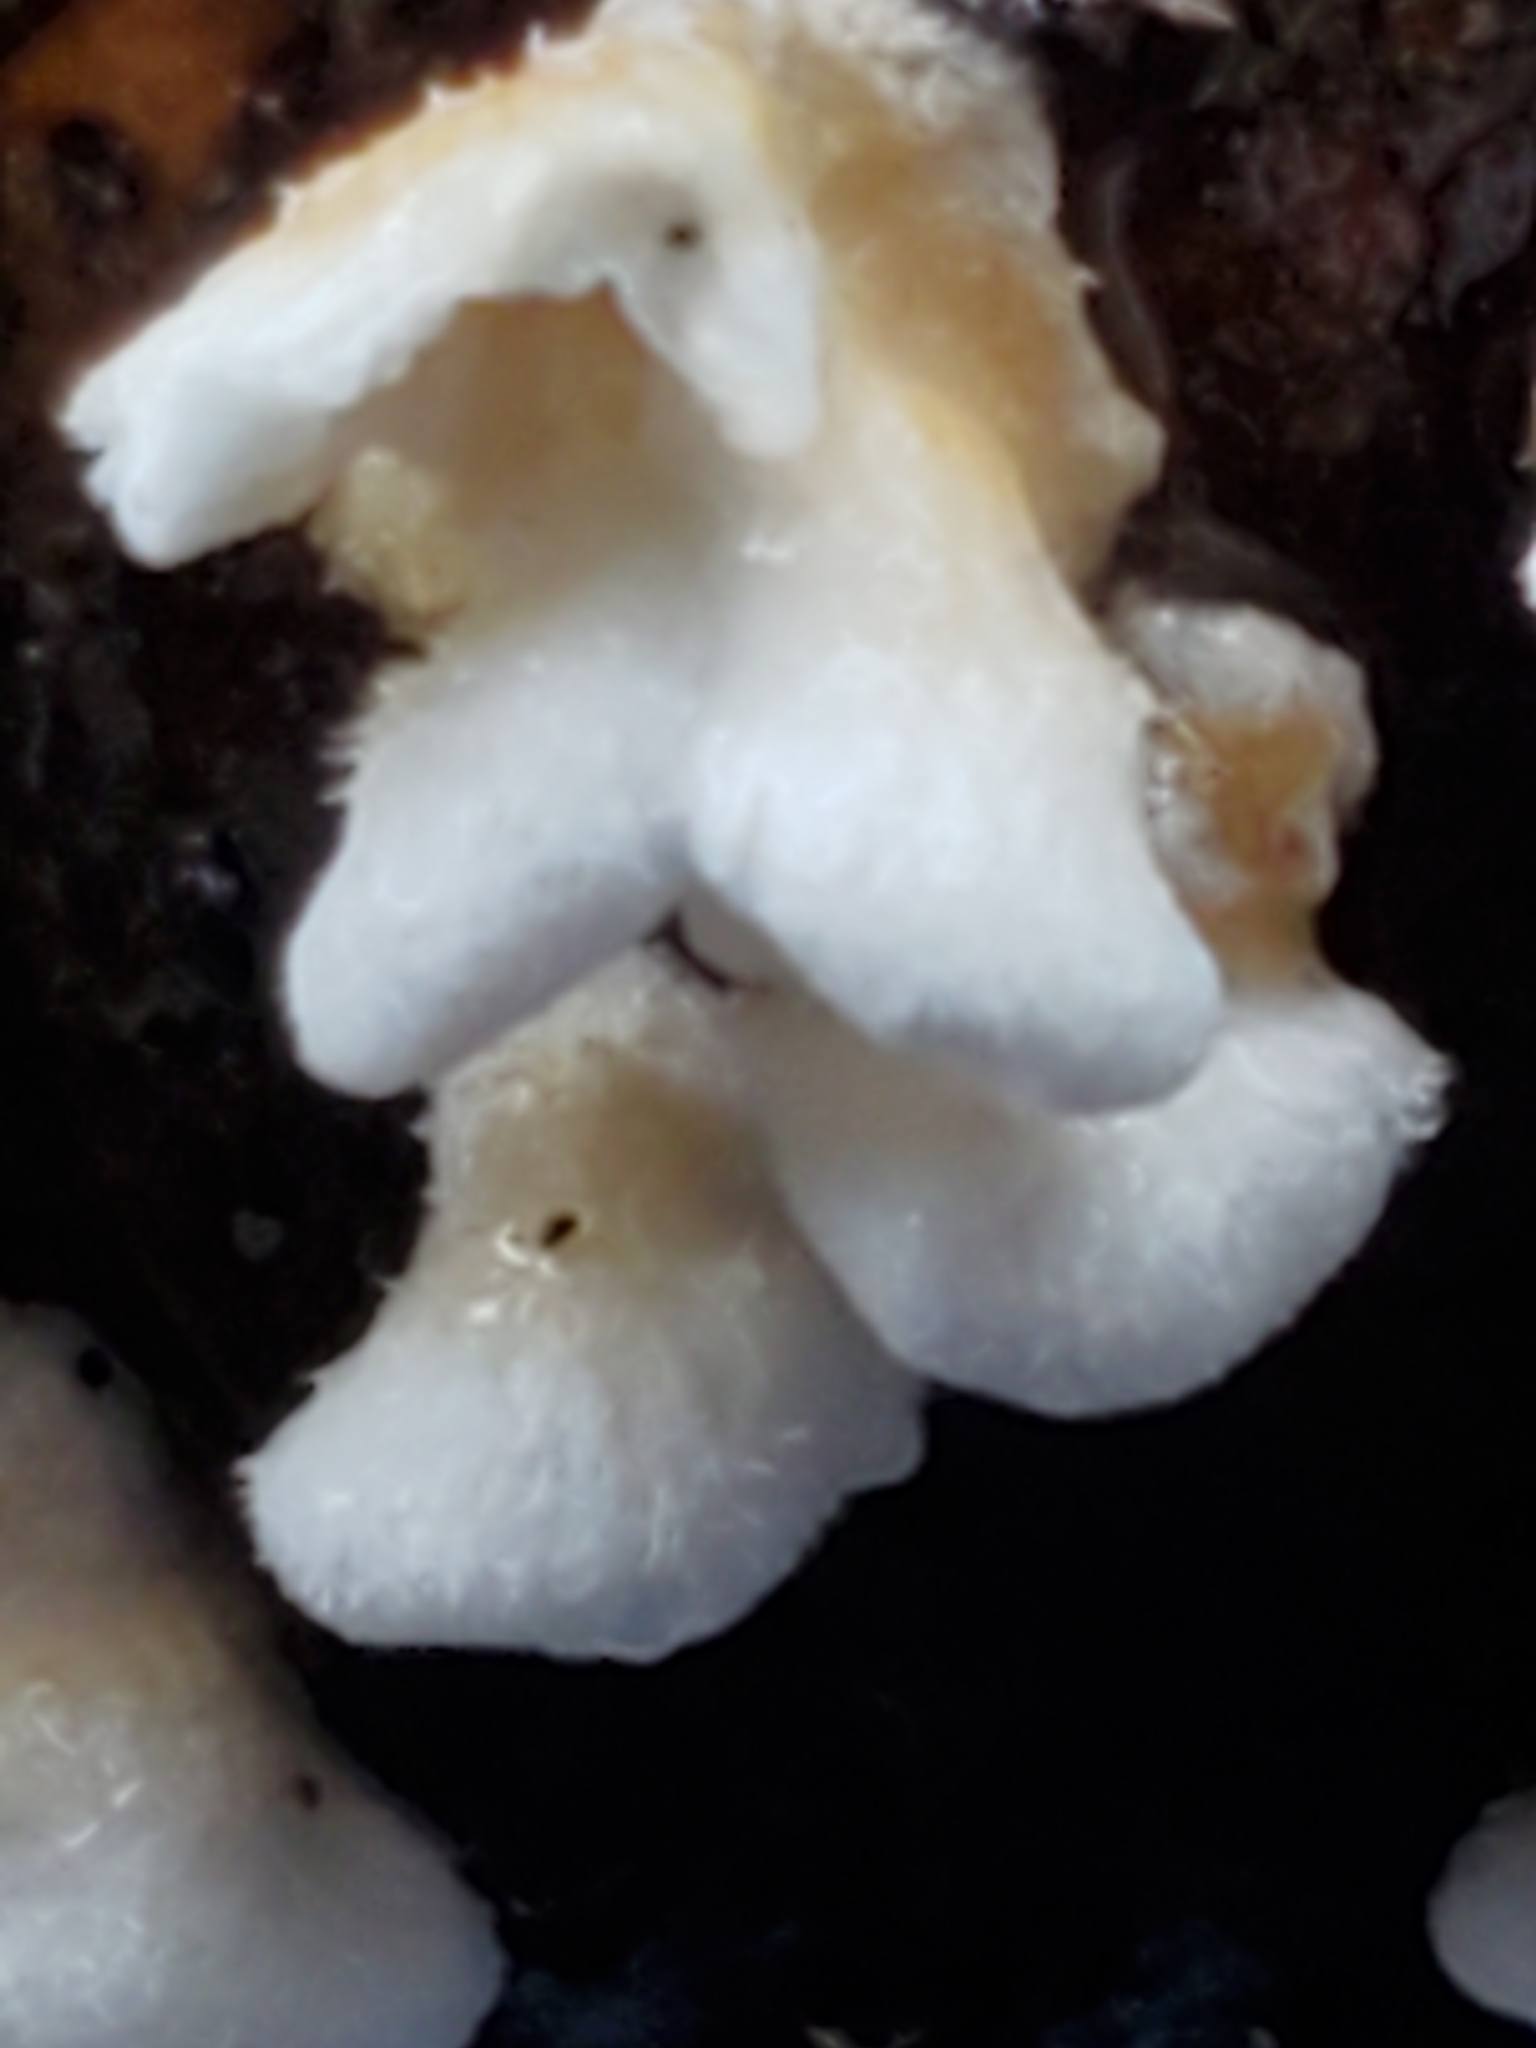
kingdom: Fungi
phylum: Basidiomycota
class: Agaricomycetes
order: Amylocorticiales
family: Amylocorticiaceae
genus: Plicaturopsis
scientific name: Plicaturopsis crispa
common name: Crimped gill
